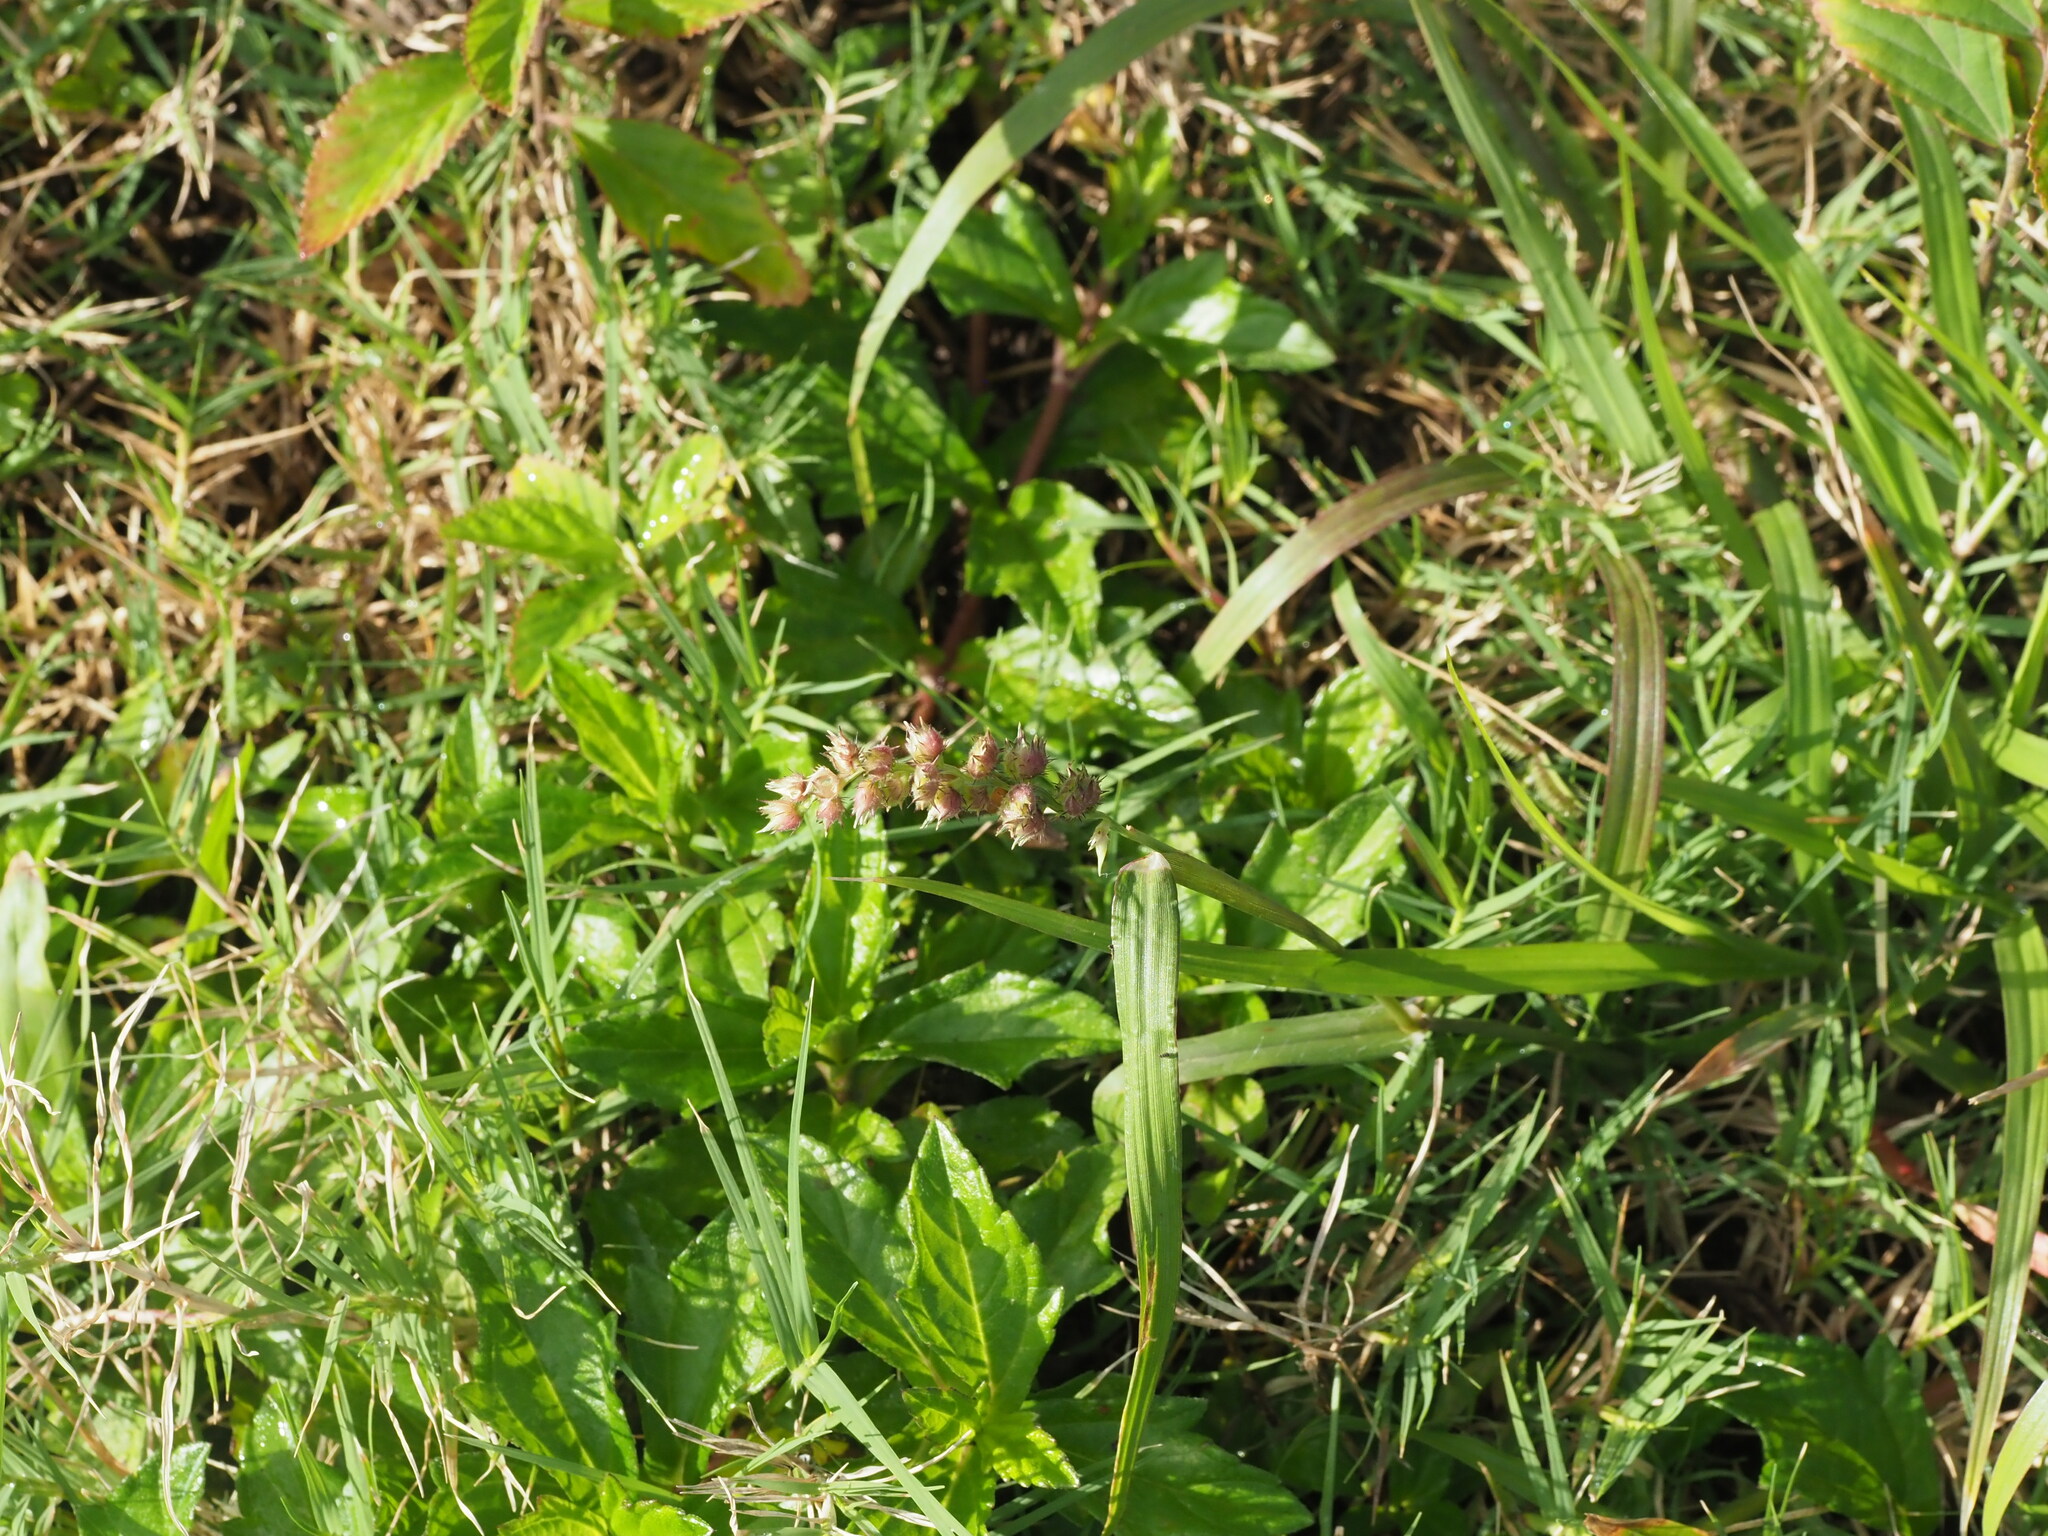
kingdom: Plantae
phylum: Tracheophyta
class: Liliopsida
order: Poales
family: Poaceae
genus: Cenchrus
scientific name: Cenchrus echinatus
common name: Southern sandbur
